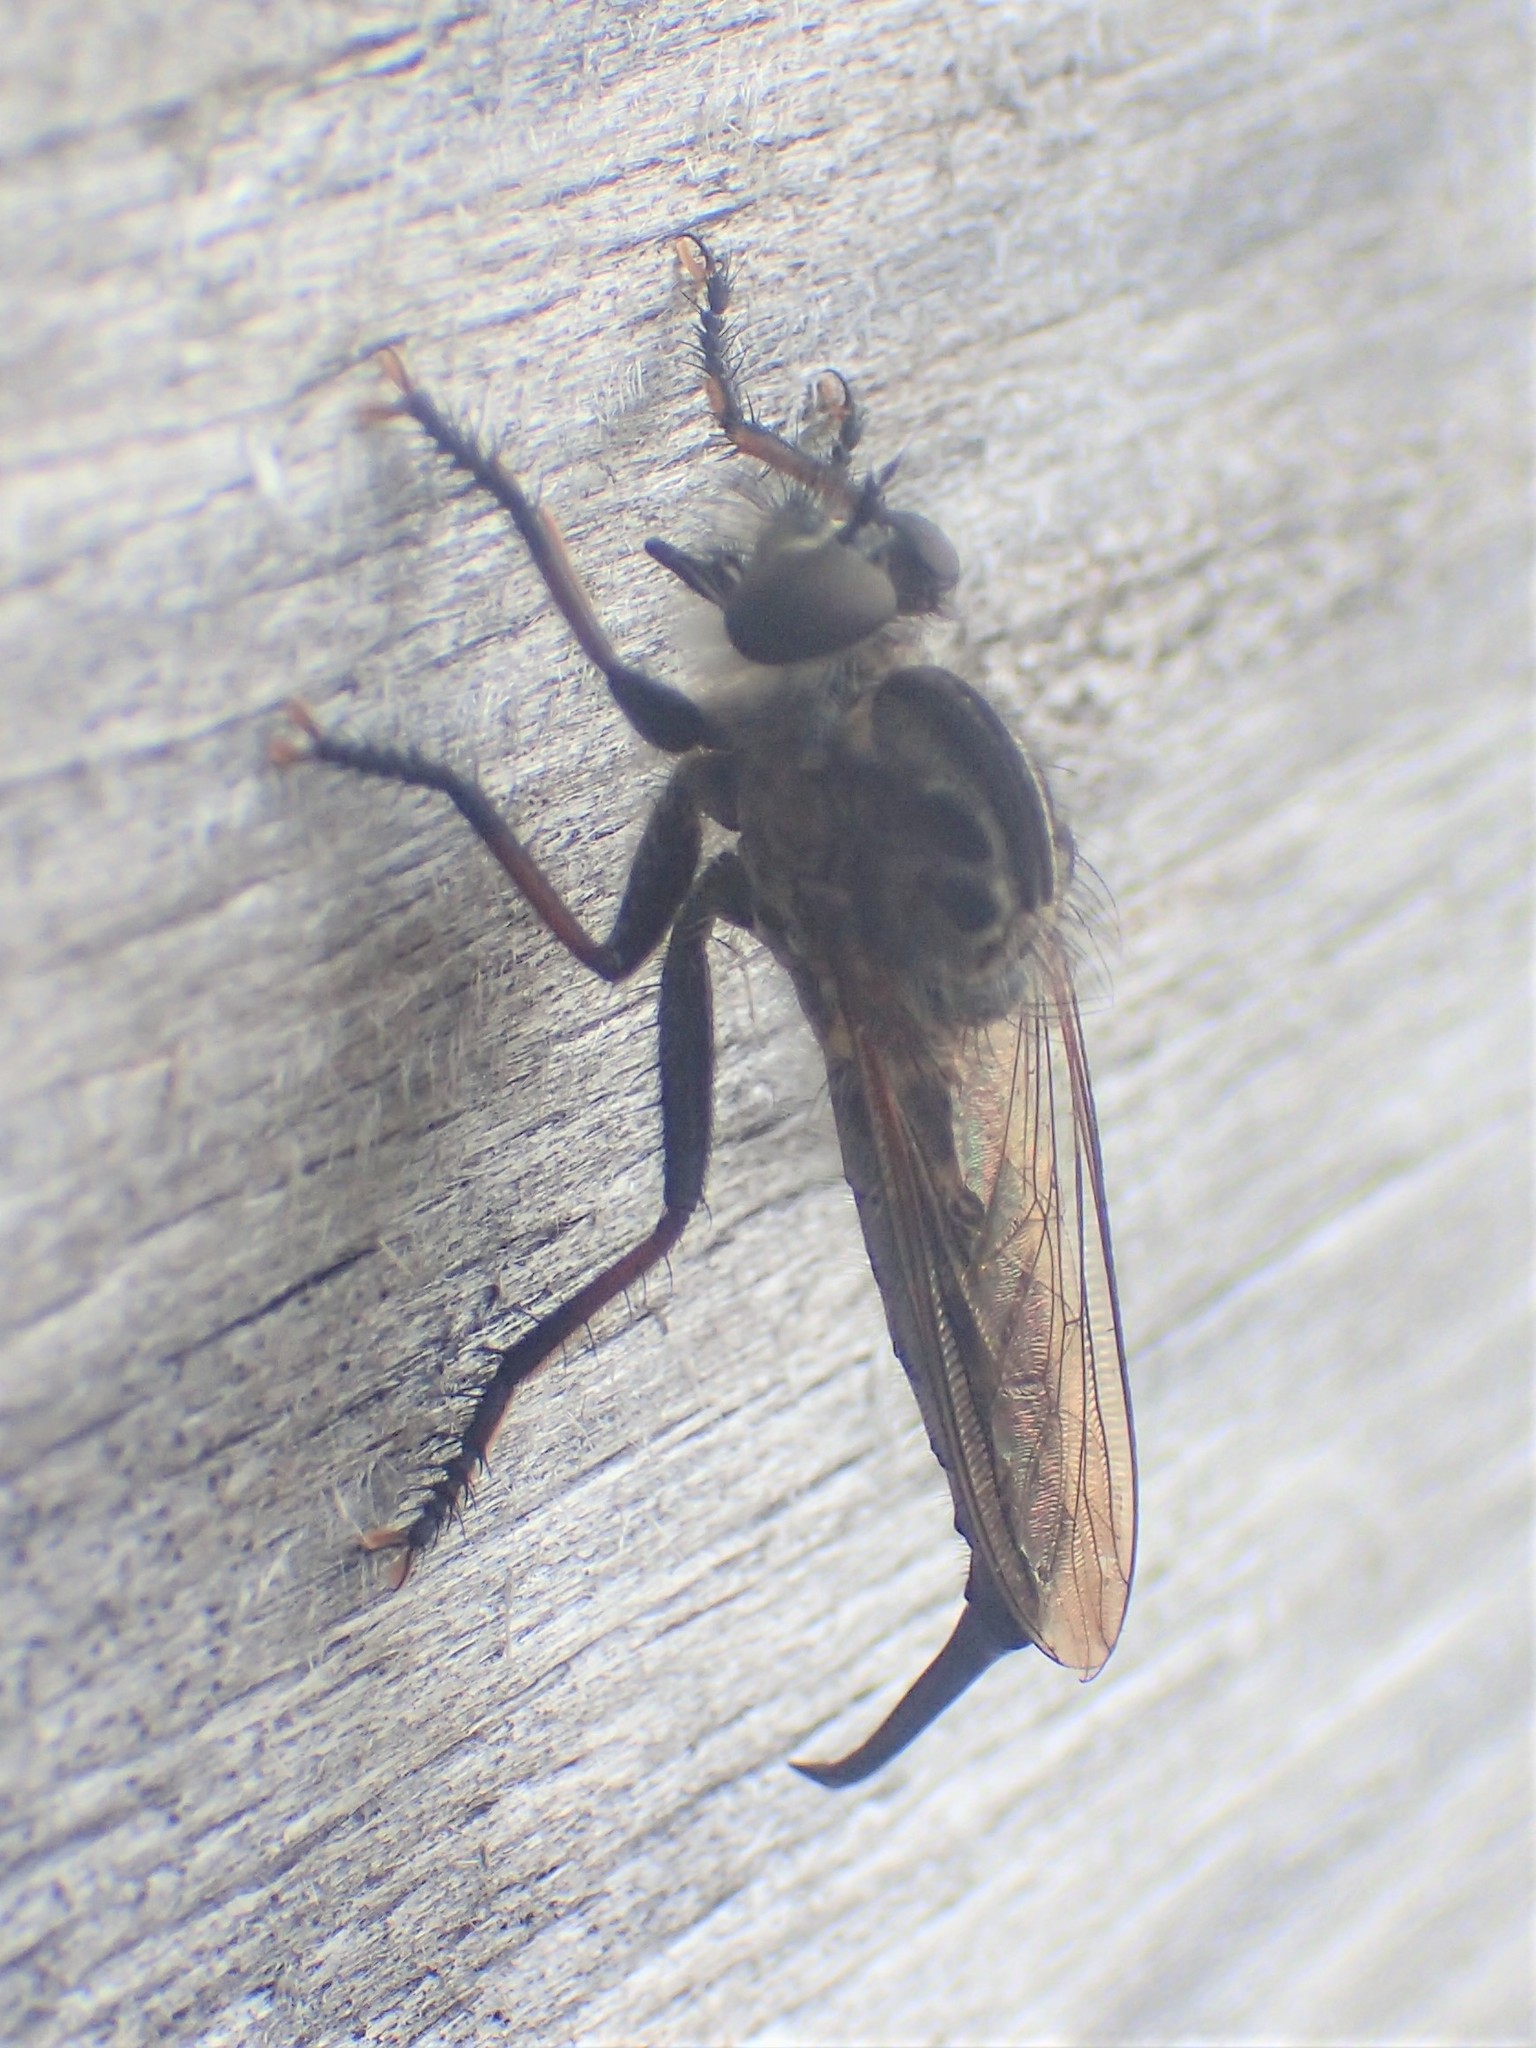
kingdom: Animalia
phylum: Arthropoda
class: Insecta
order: Diptera
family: Asilidae
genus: Efferia
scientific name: Efferia aestuans
